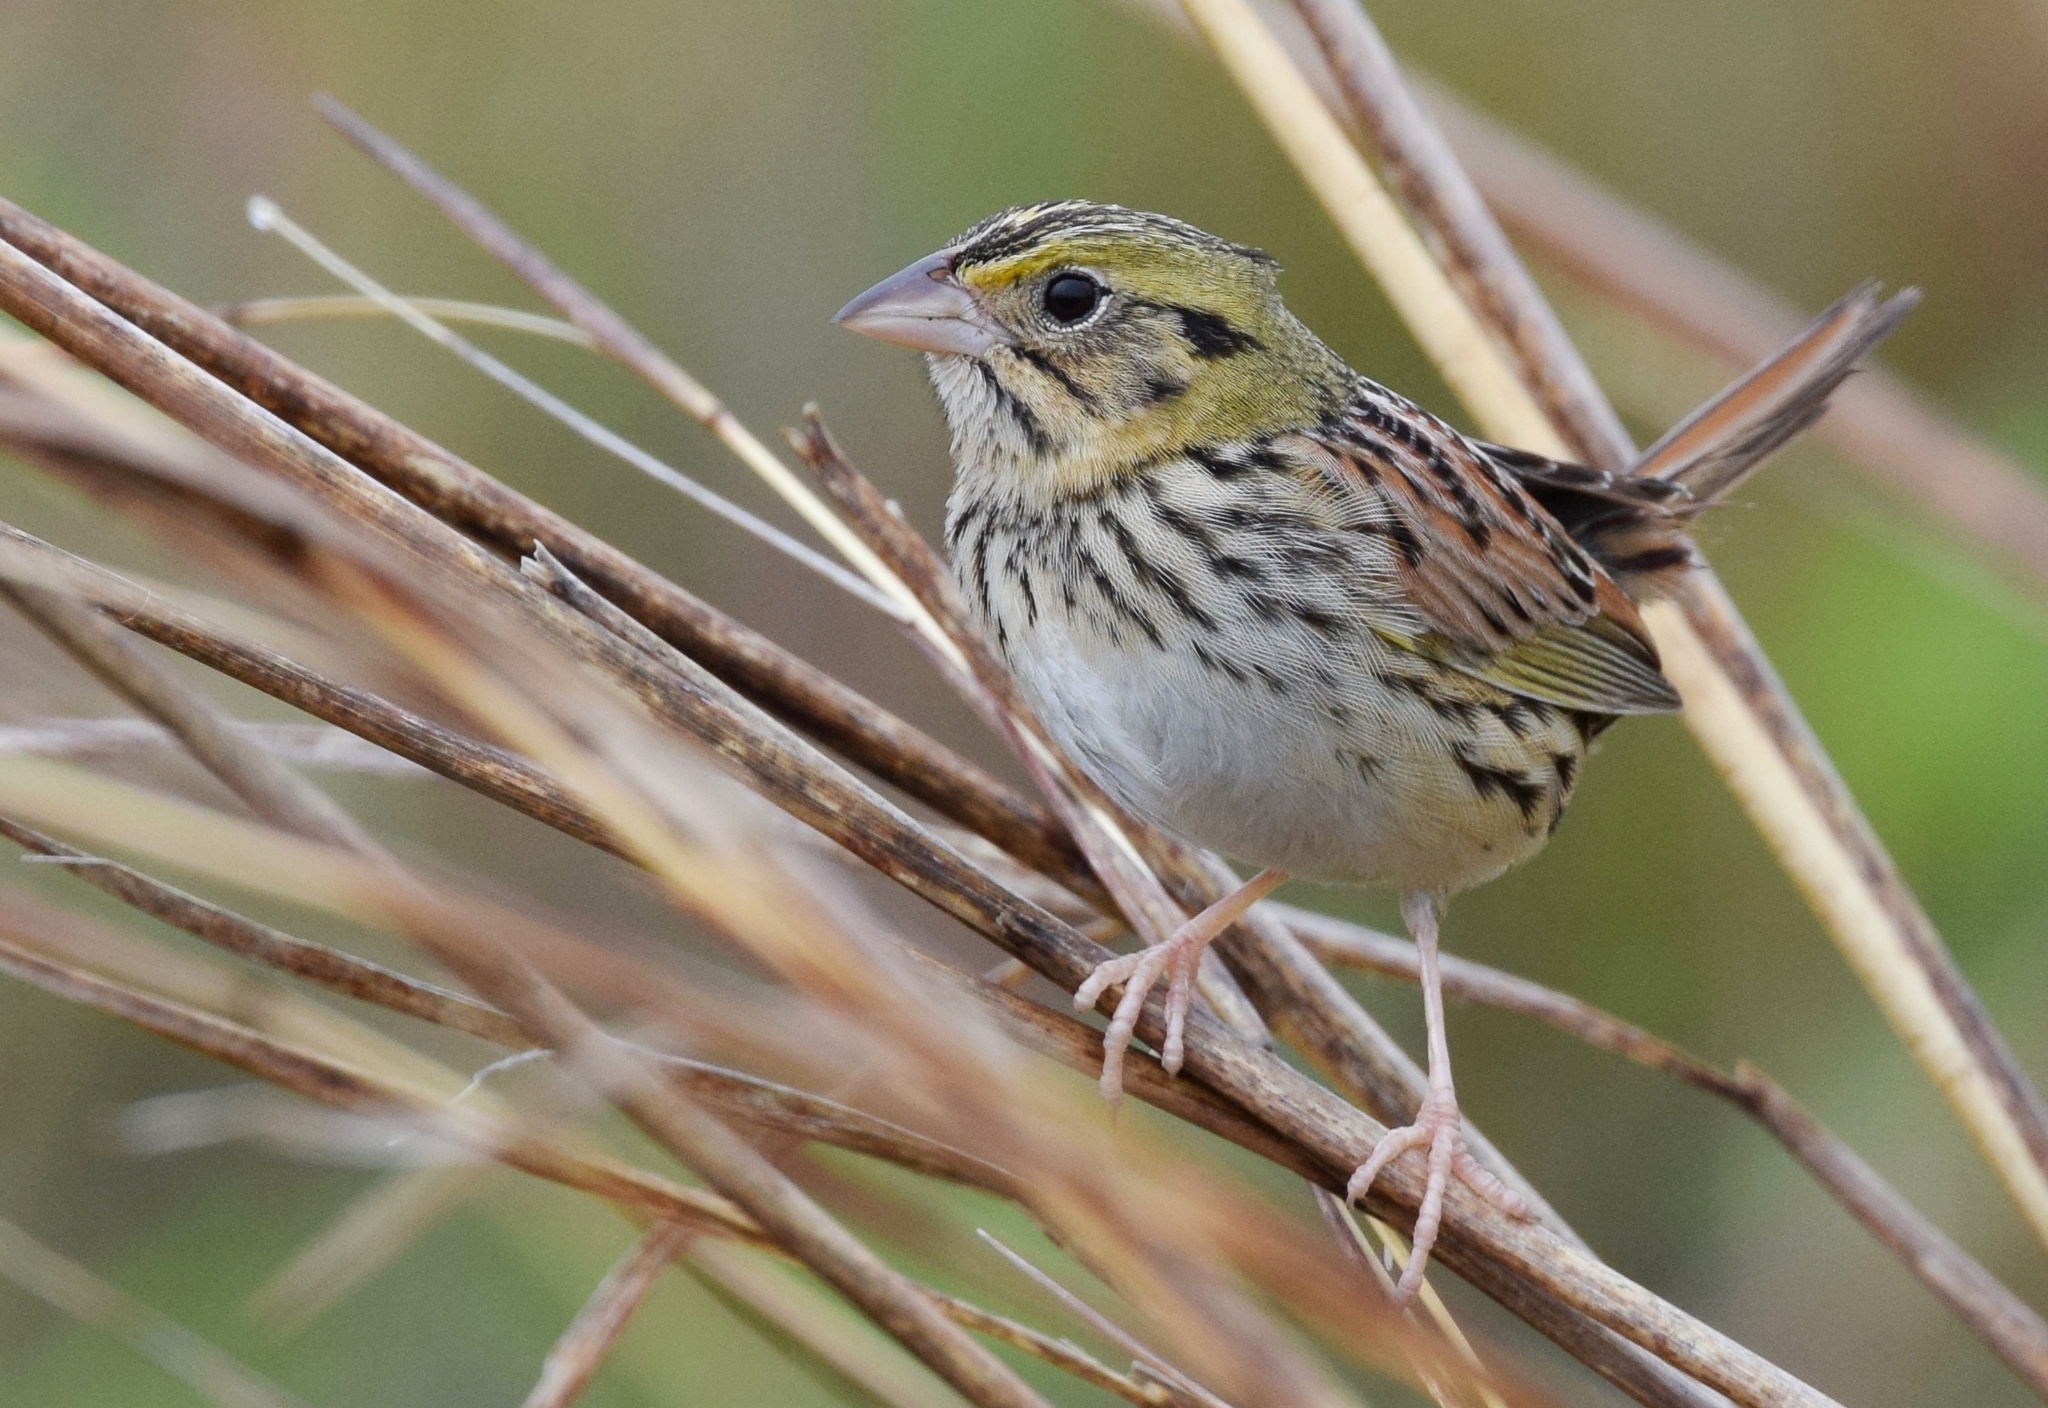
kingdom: Animalia
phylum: Chordata
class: Aves
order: Passeriformes
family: Passerellidae
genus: Centronyx
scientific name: Centronyx henslowii
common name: Henslow's sparrow
